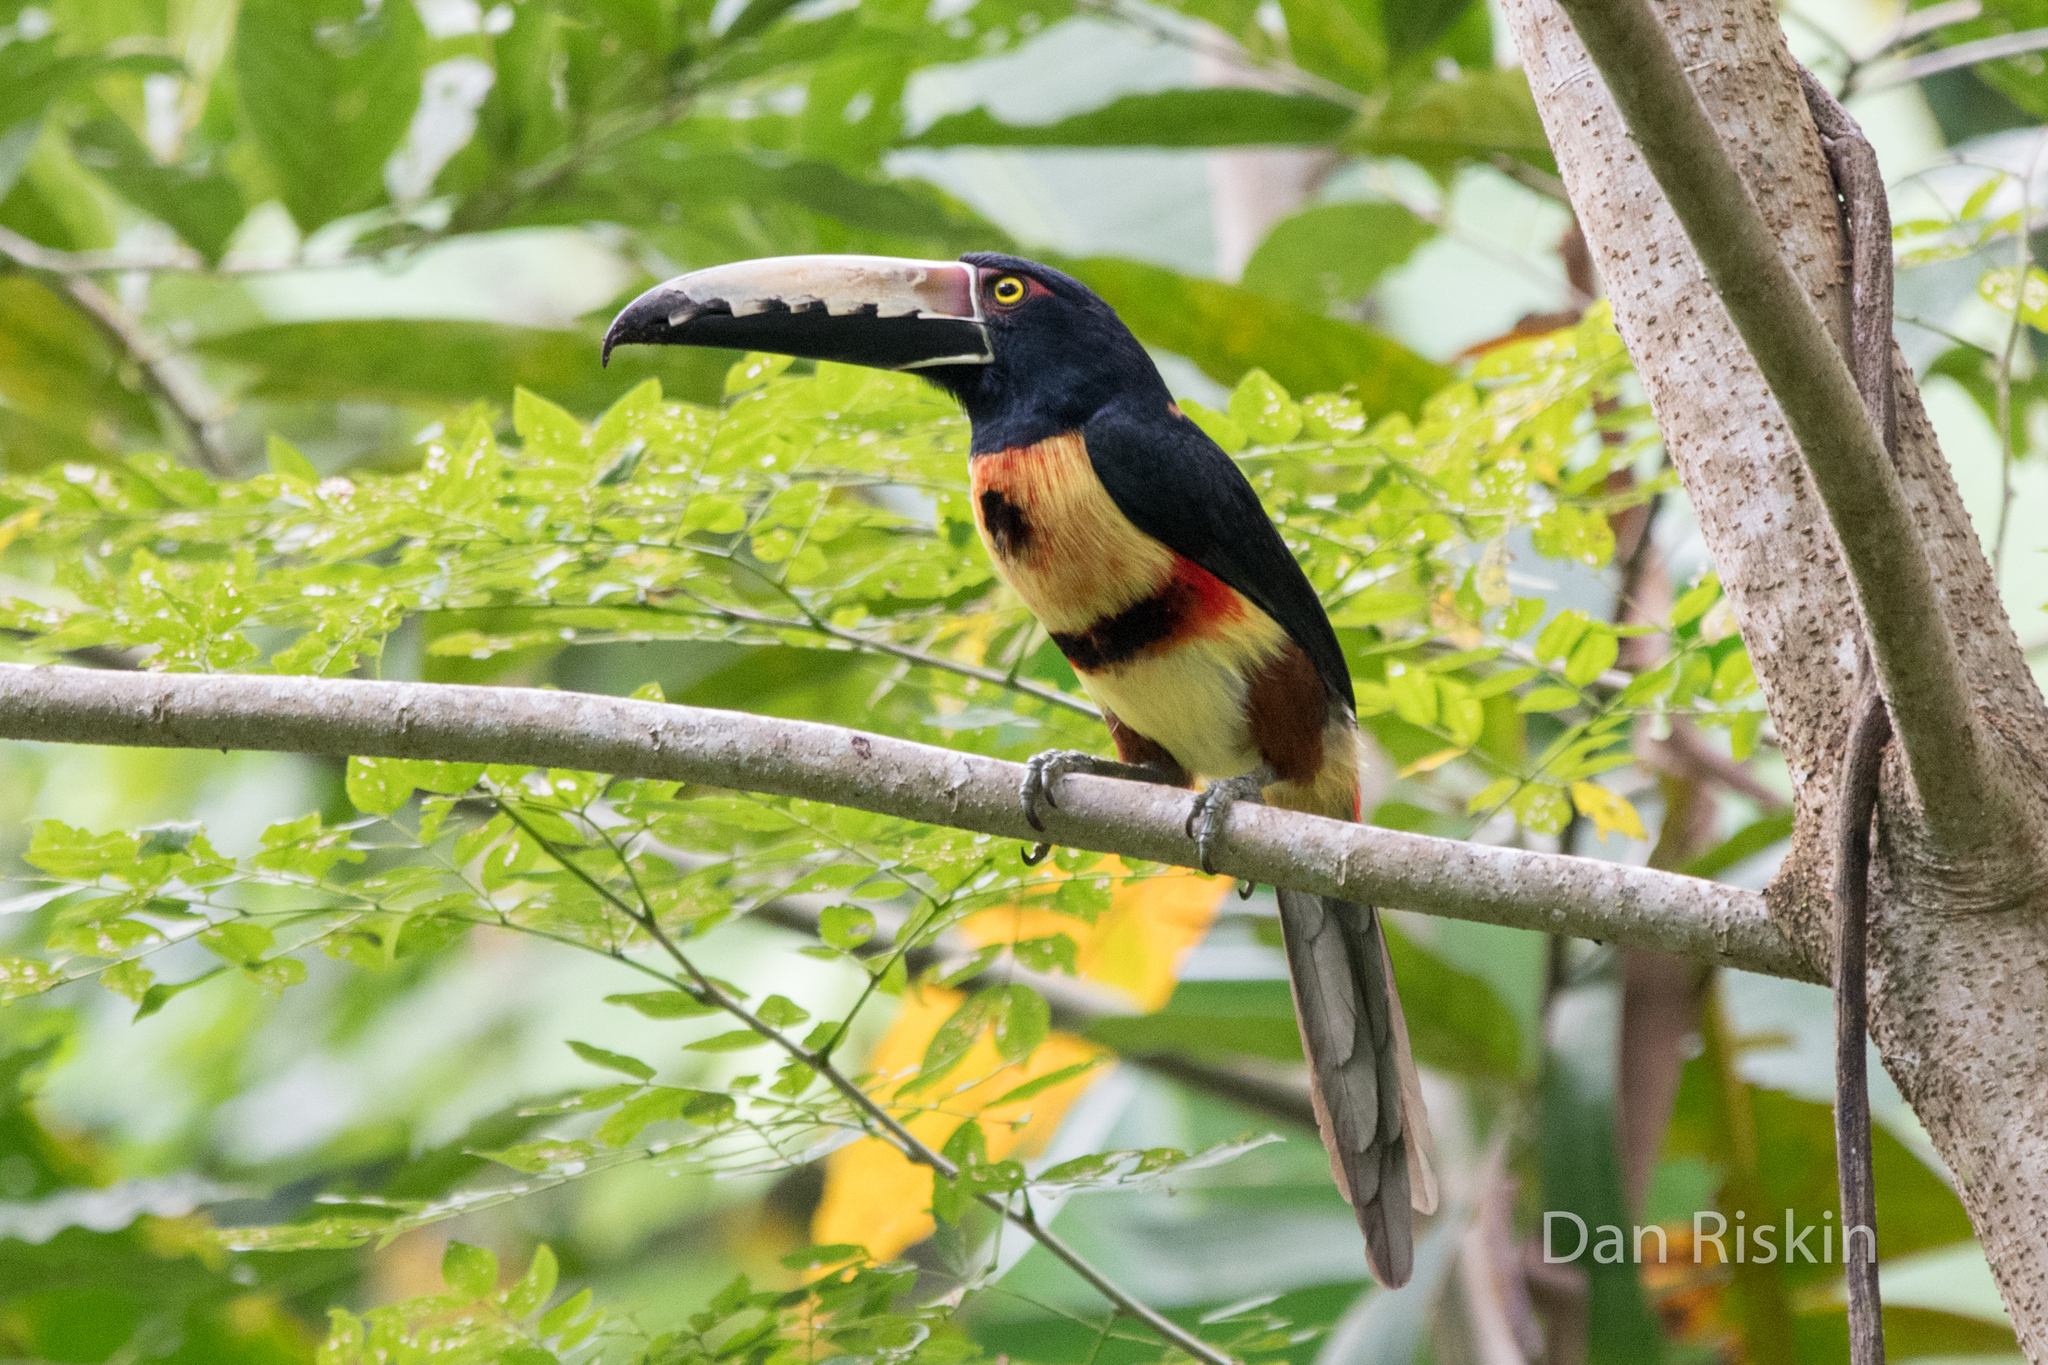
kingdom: Animalia
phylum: Chordata
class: Aves
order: Piciformes
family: Ramphastidae
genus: Pteroglossus
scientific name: Pteroglossus torquatus
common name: Collared aracari
